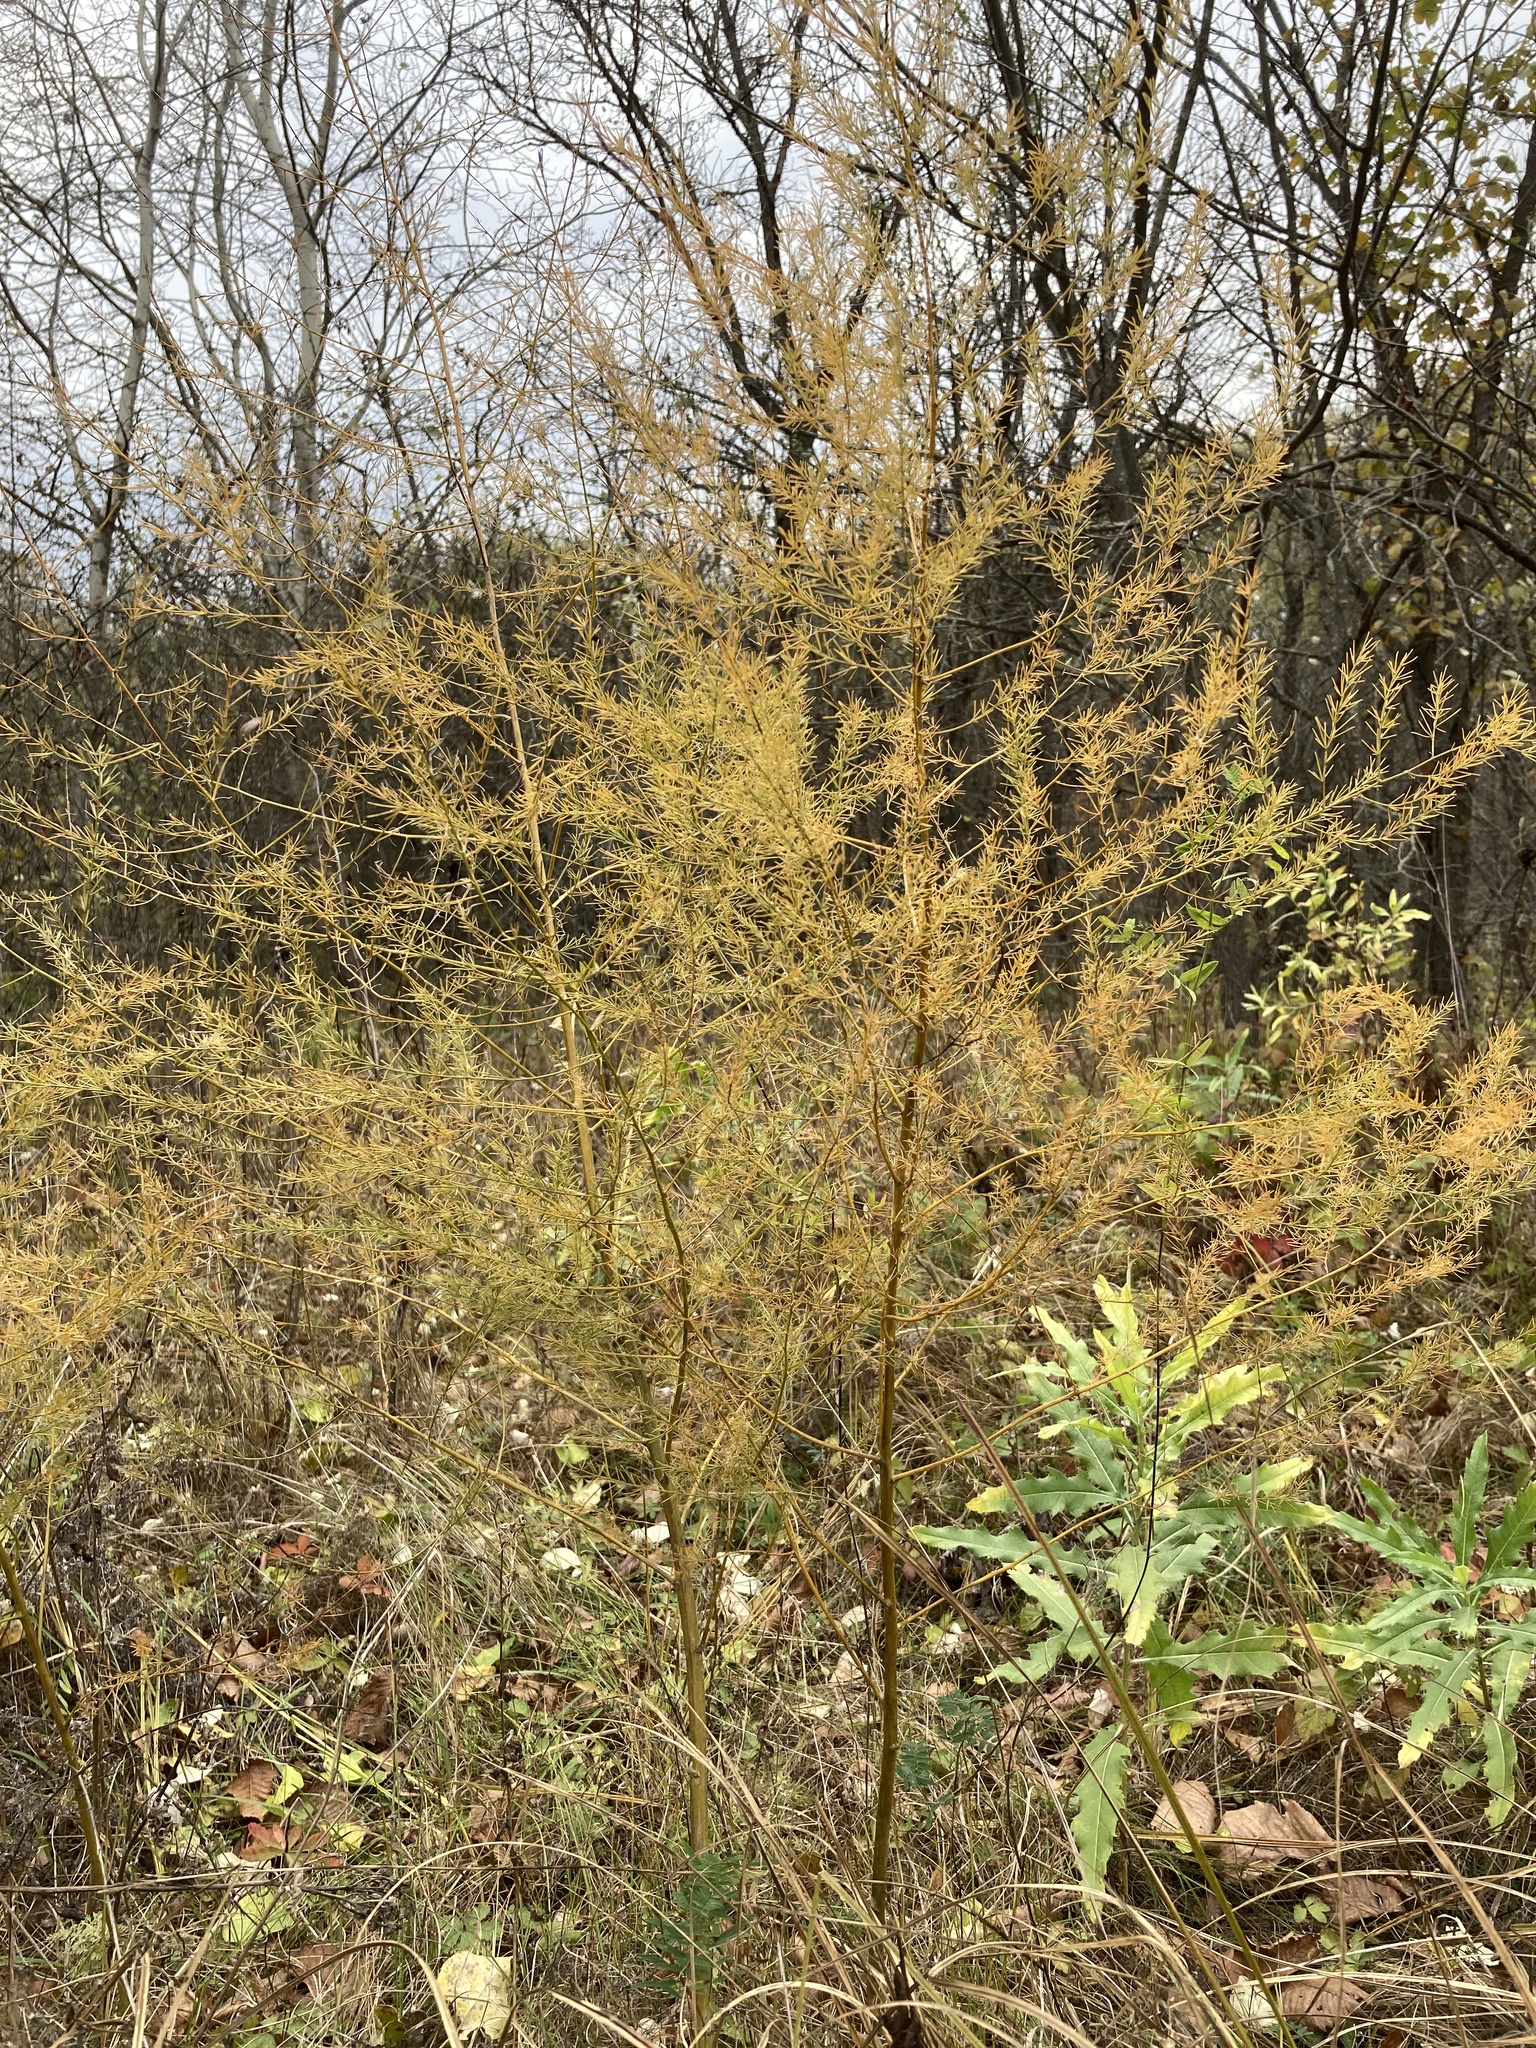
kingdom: Plantae
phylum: Tracheophyta
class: Liliopsida
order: Asparagales
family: Asparagaceae
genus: Asparagus
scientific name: Asparagus officinalis
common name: Garden asparagus
